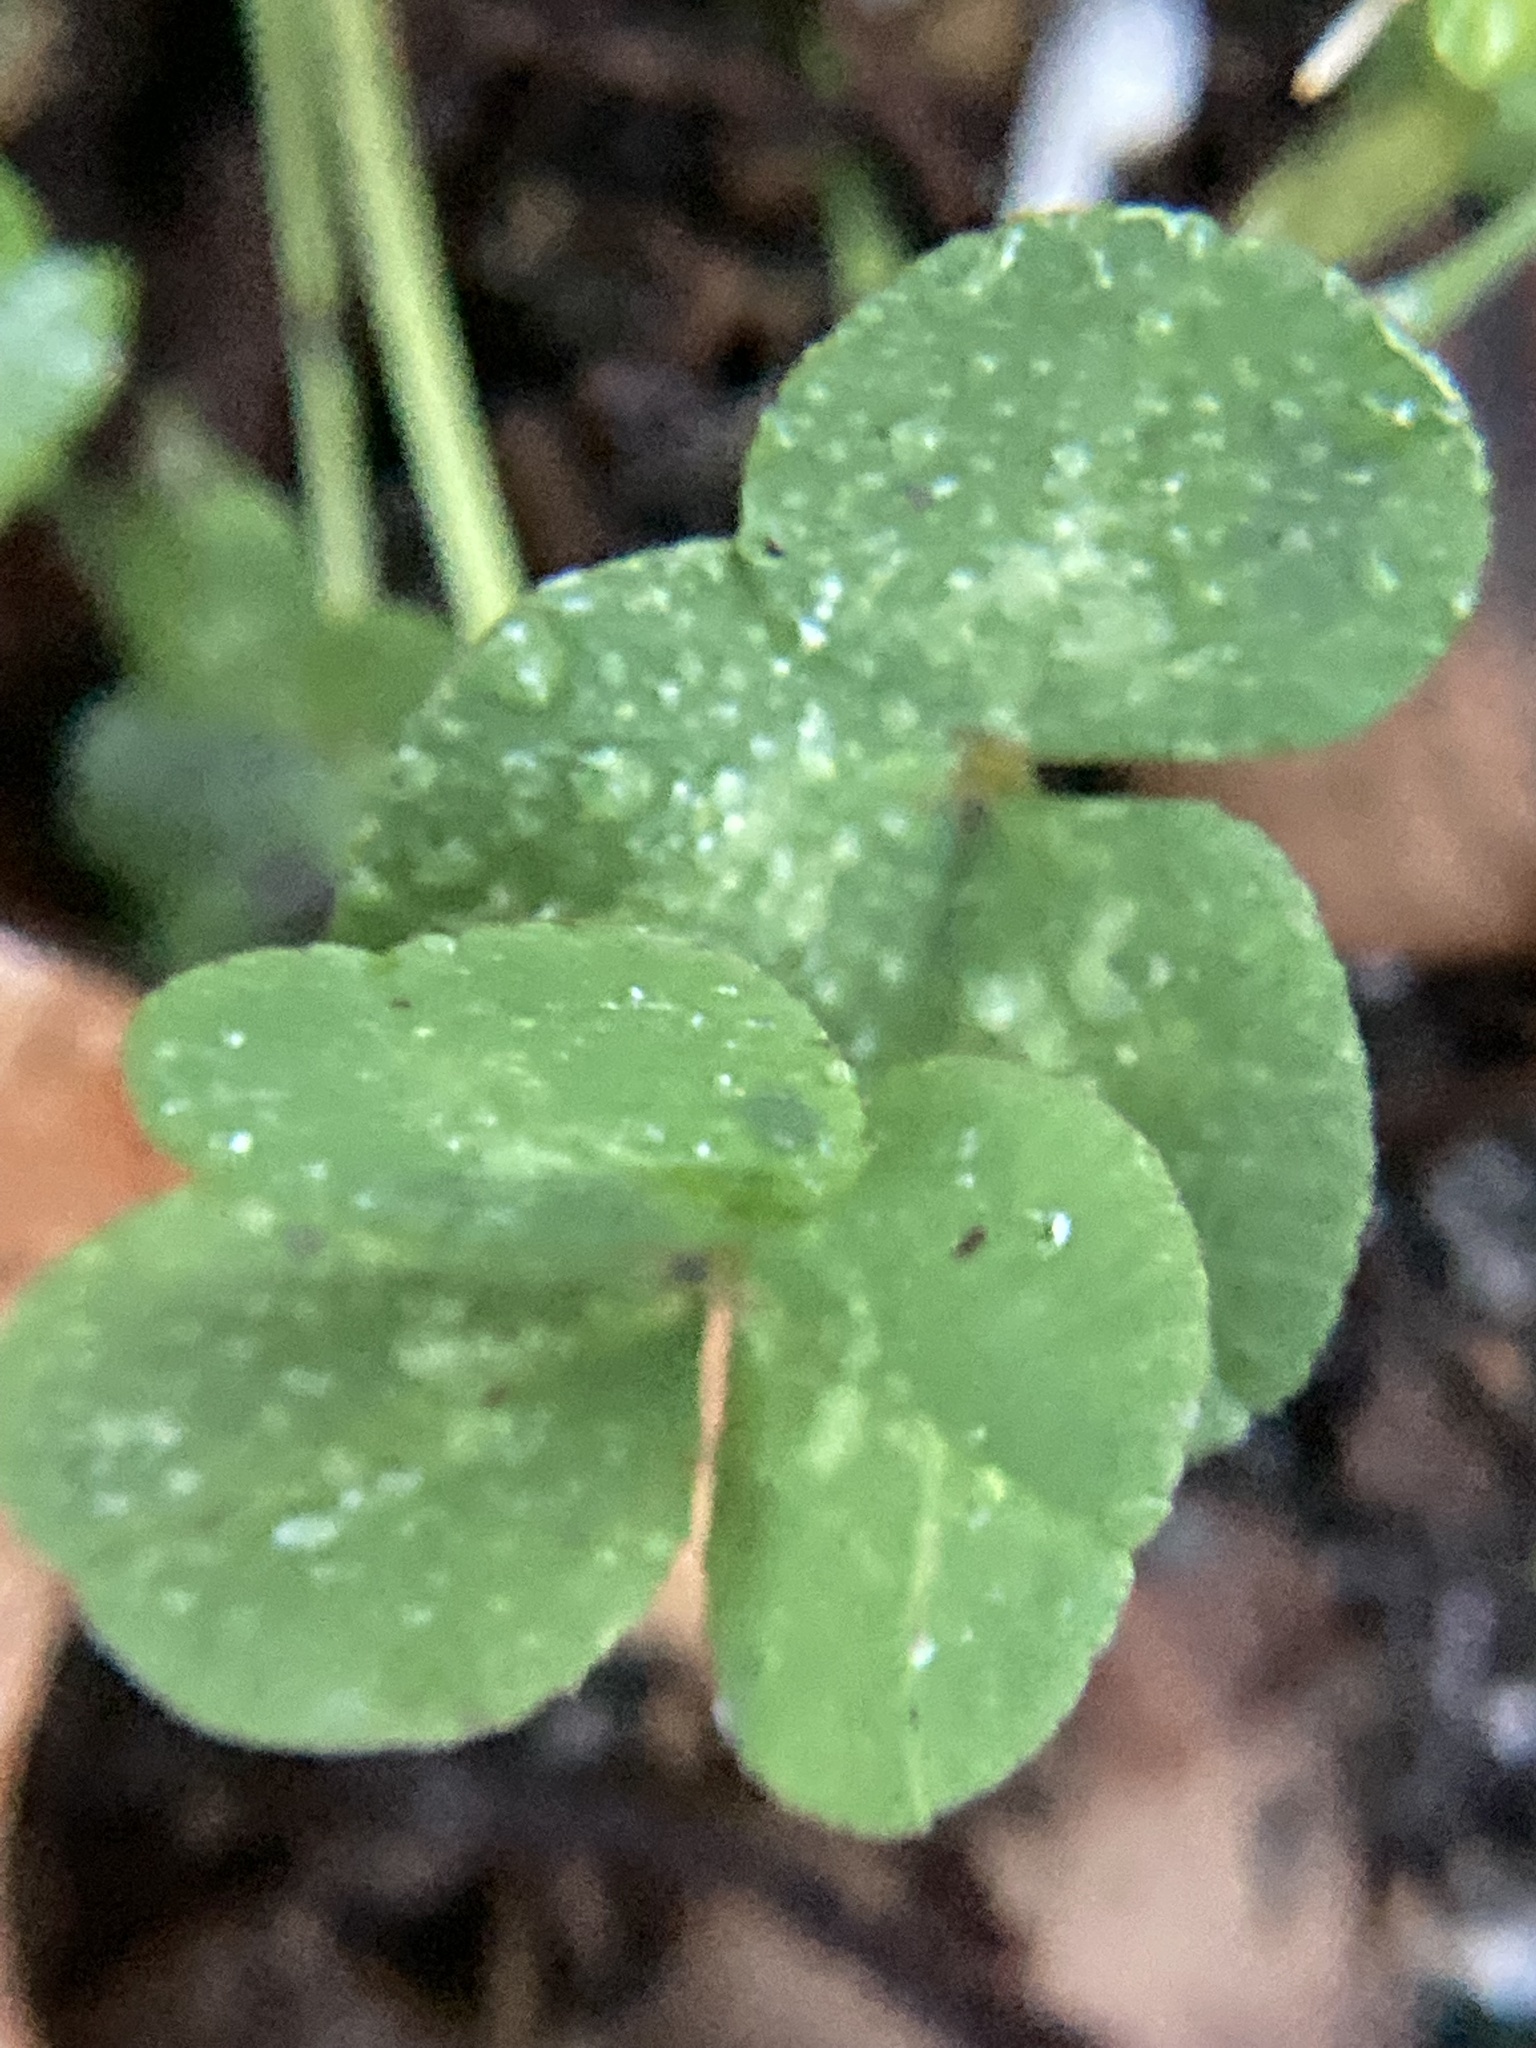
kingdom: Plantae
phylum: Tracheophyta
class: Magnoliopsida
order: Fabales
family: Fabaceae
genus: Trifolium
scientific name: Trifolium repens
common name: White clover
